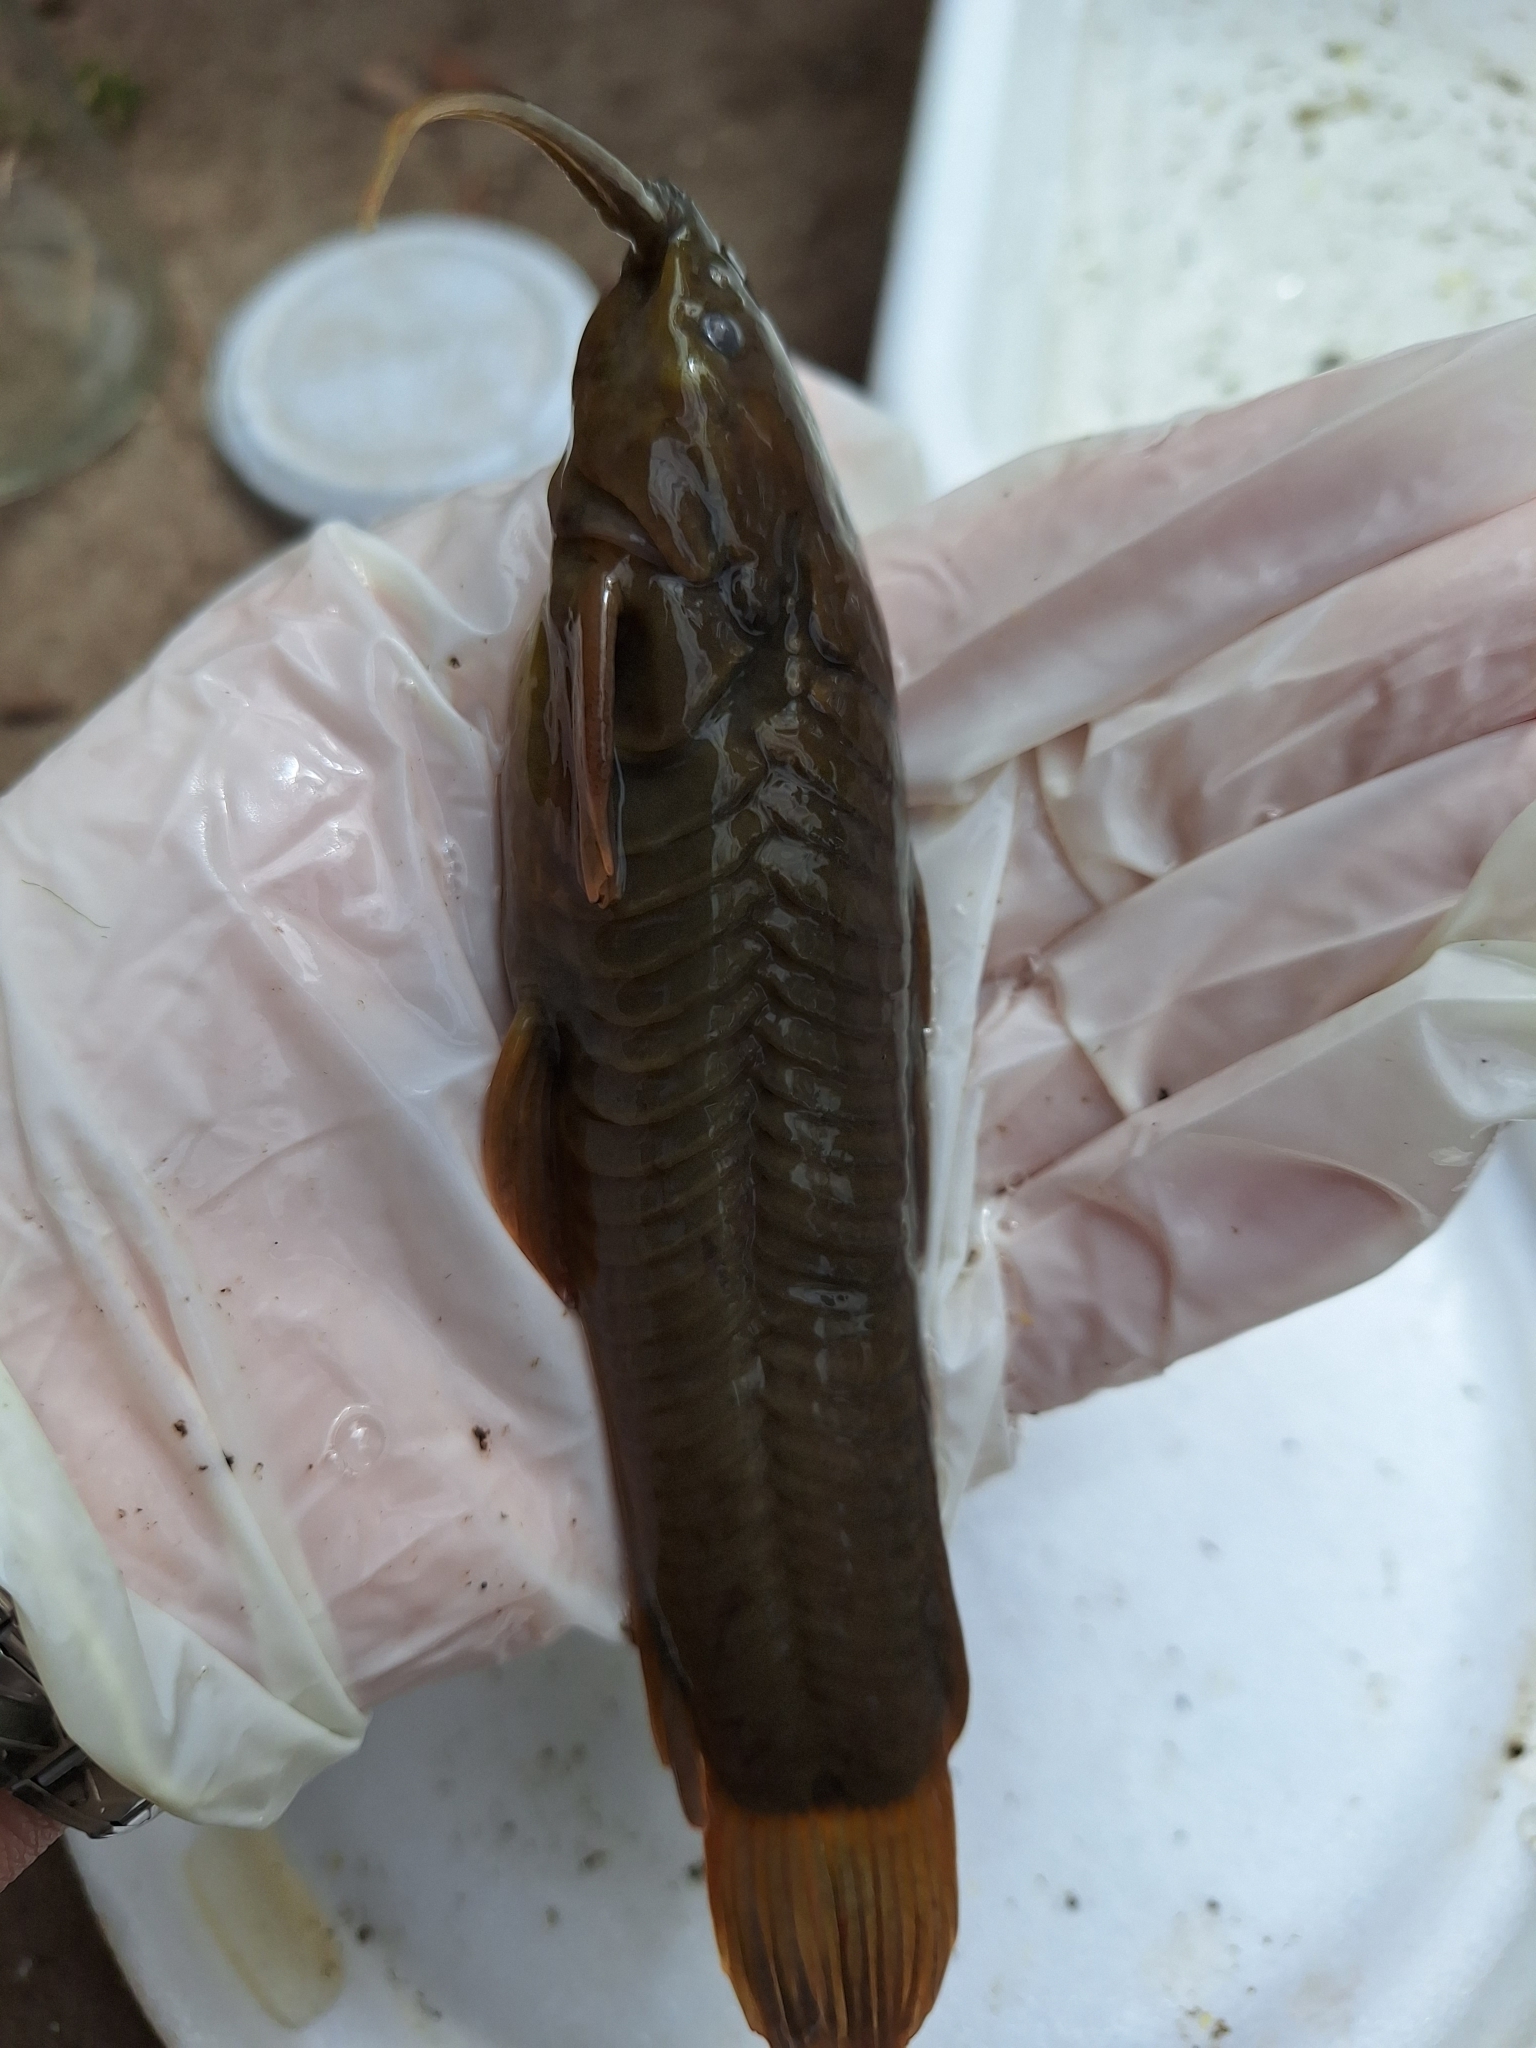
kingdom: Animalia
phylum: Chordata
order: Siluriformes
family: Callichthyidae
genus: Callichthys
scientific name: Callichthys callichthys
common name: Cascarudo
